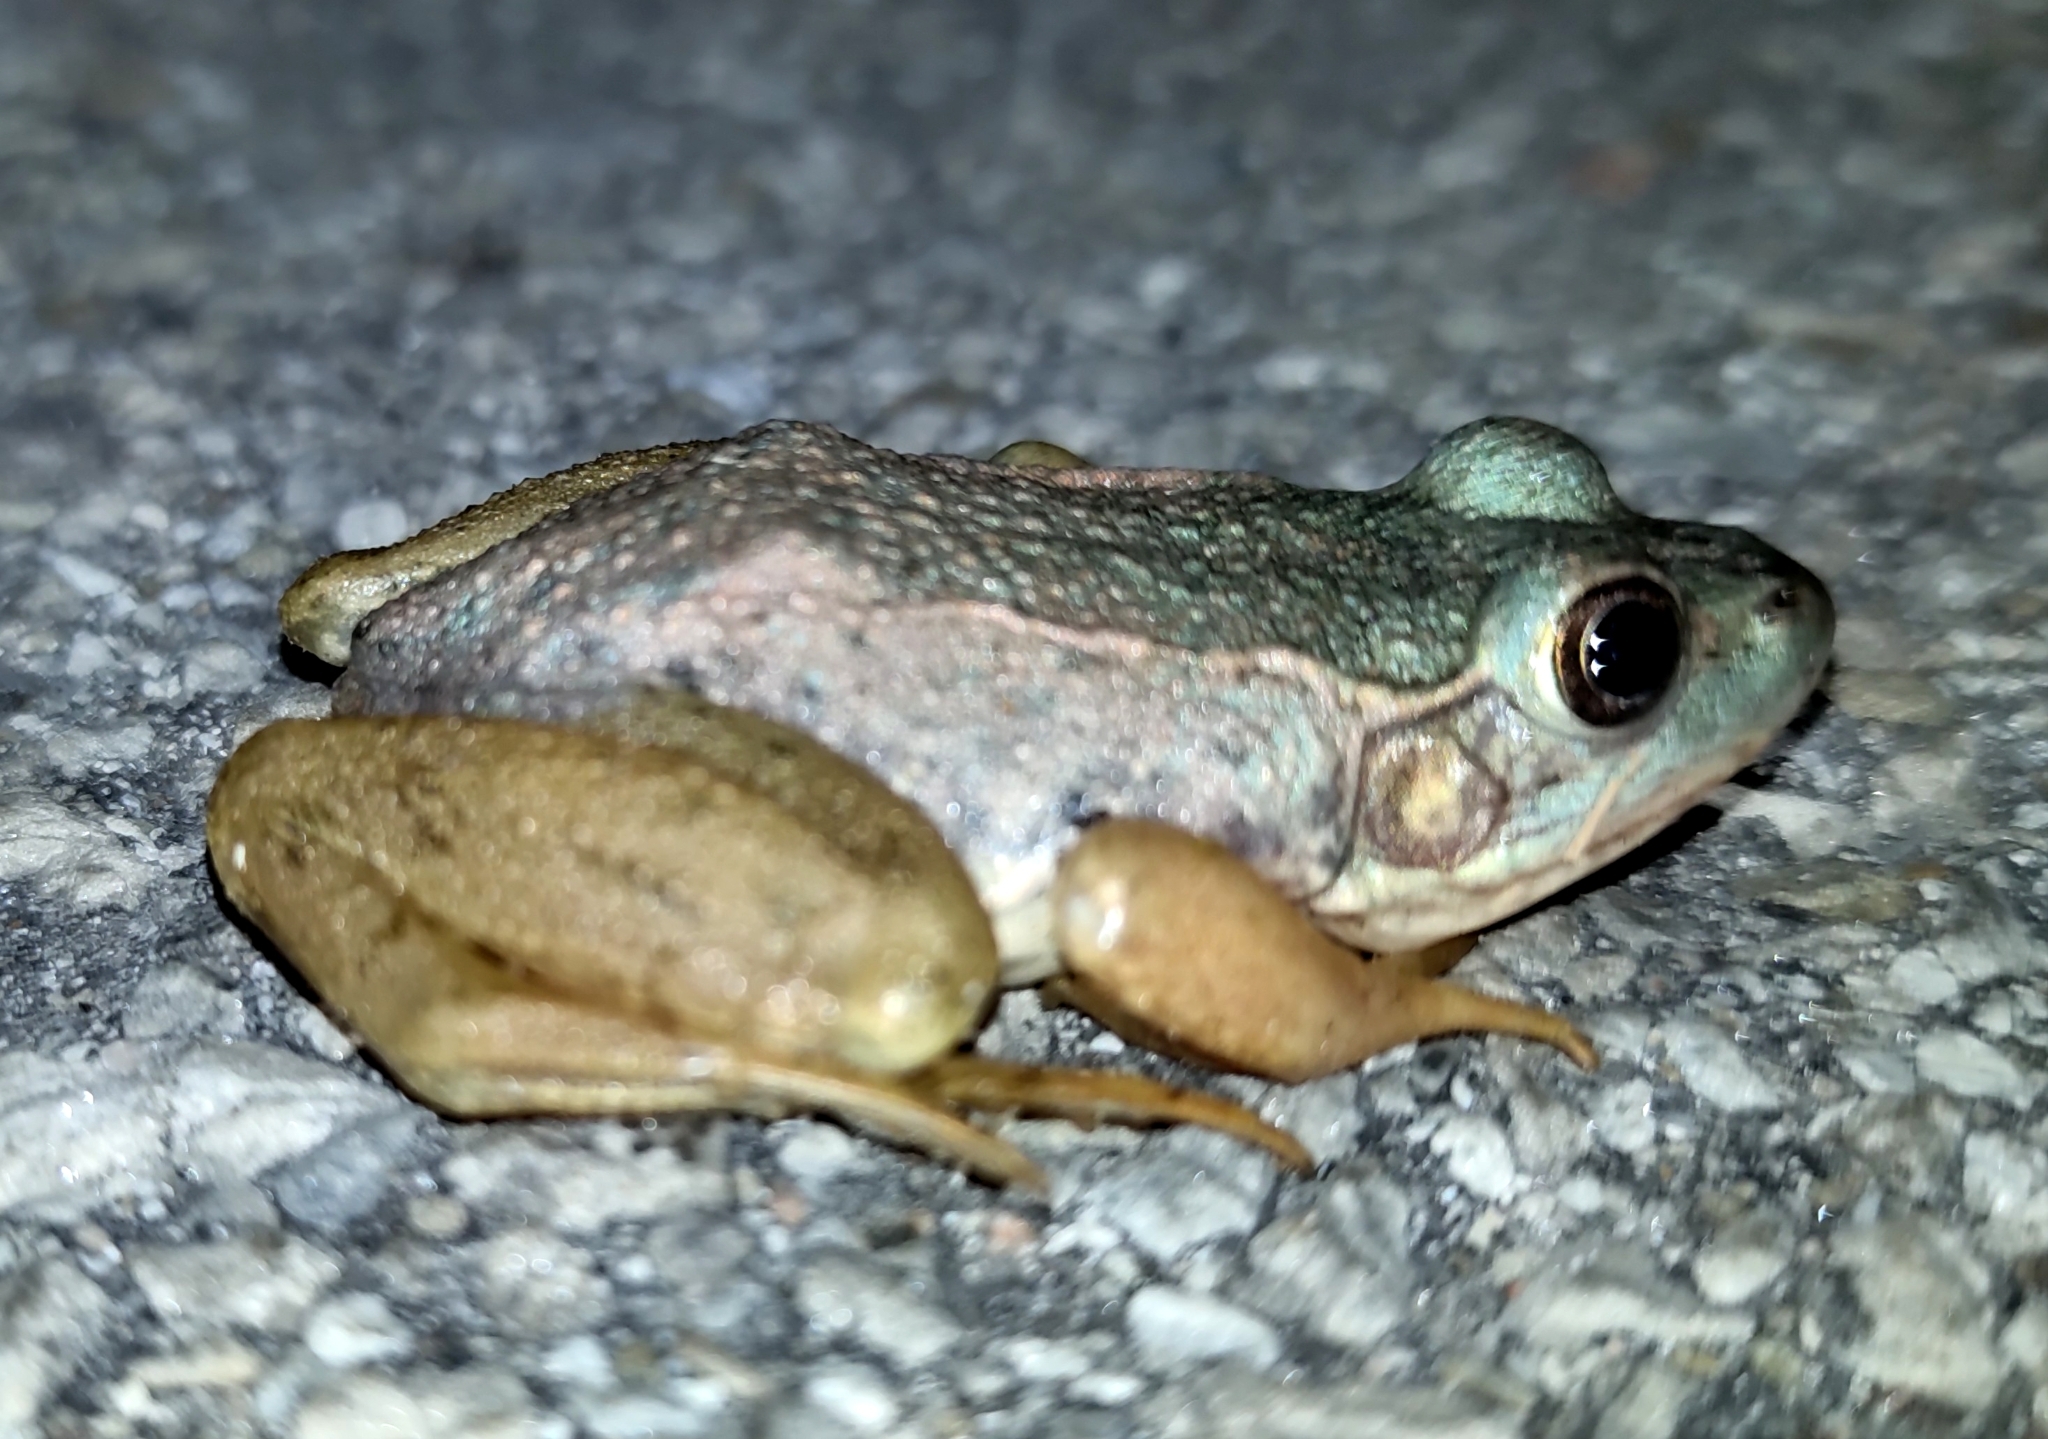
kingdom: Animalia
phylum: Chordata
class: Amphibia
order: Anura
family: Ranidae
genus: Lithobates
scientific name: Lithobates clamitans
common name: Green frog
